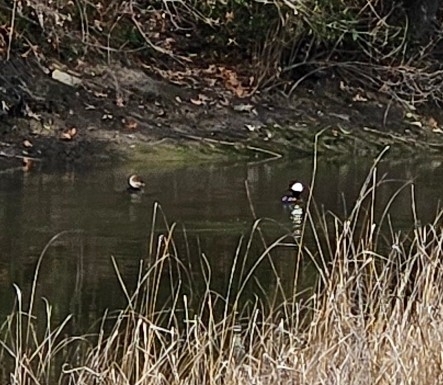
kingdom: Animalia
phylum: Chordata
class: Aves
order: Anseriformes
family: Anatidae
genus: Lophodytes
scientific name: Lophodytes cucullatus
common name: Hooded merganser
